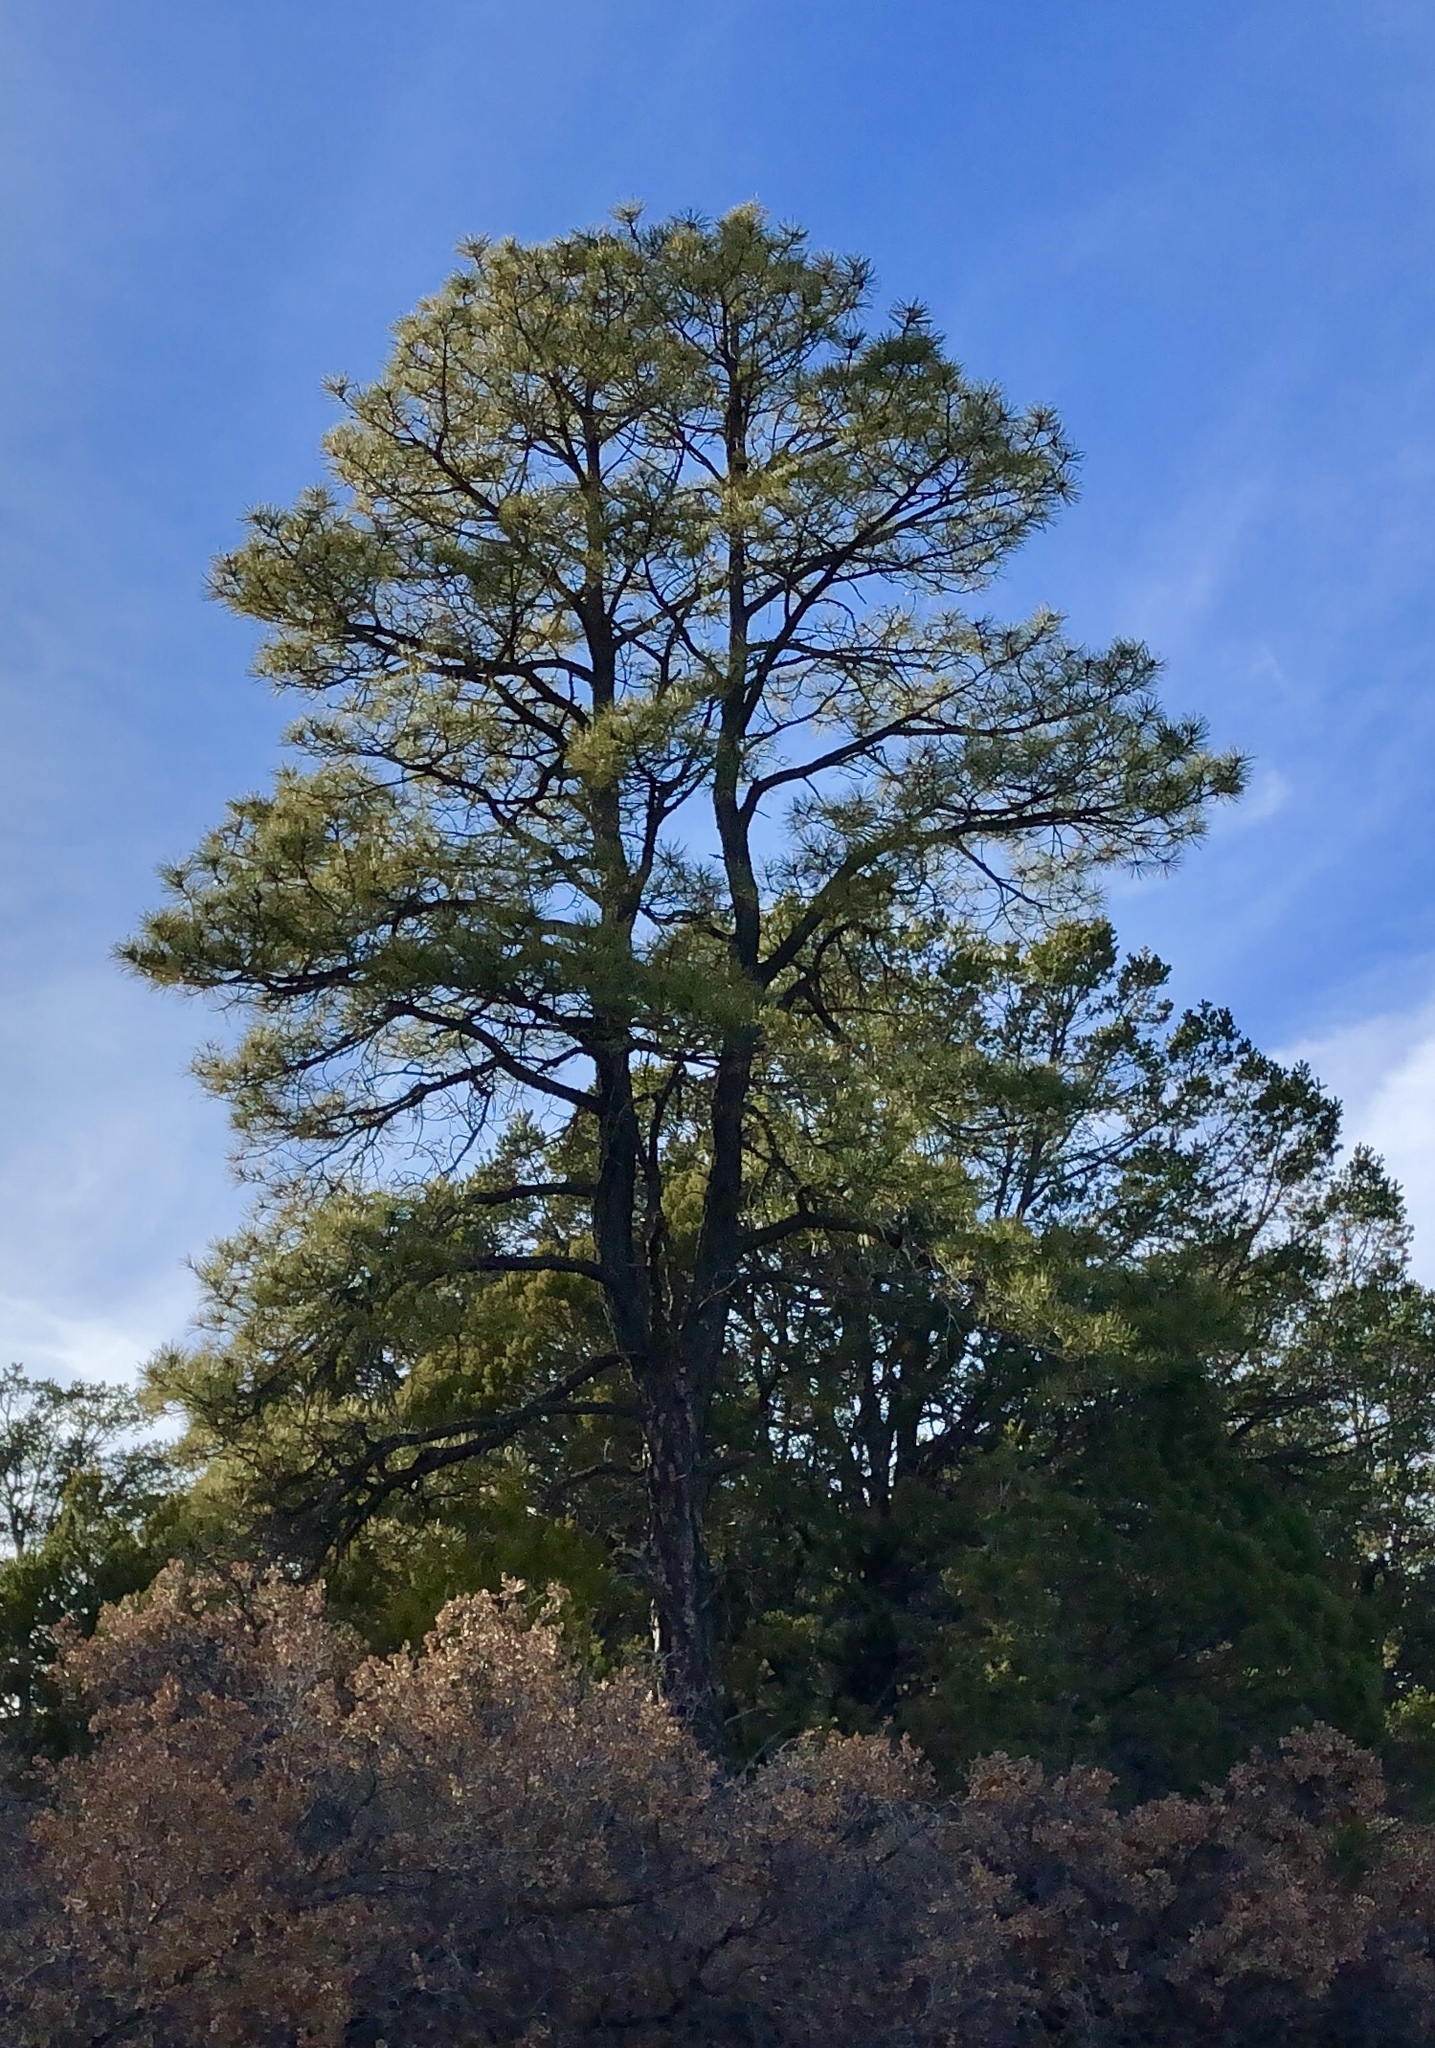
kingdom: Plantae
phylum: Tracheophyta
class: Pinopsida
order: Pinales
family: Pinaceae
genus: Pinus
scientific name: Pinus ponderosa
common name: Western yellow-pine
